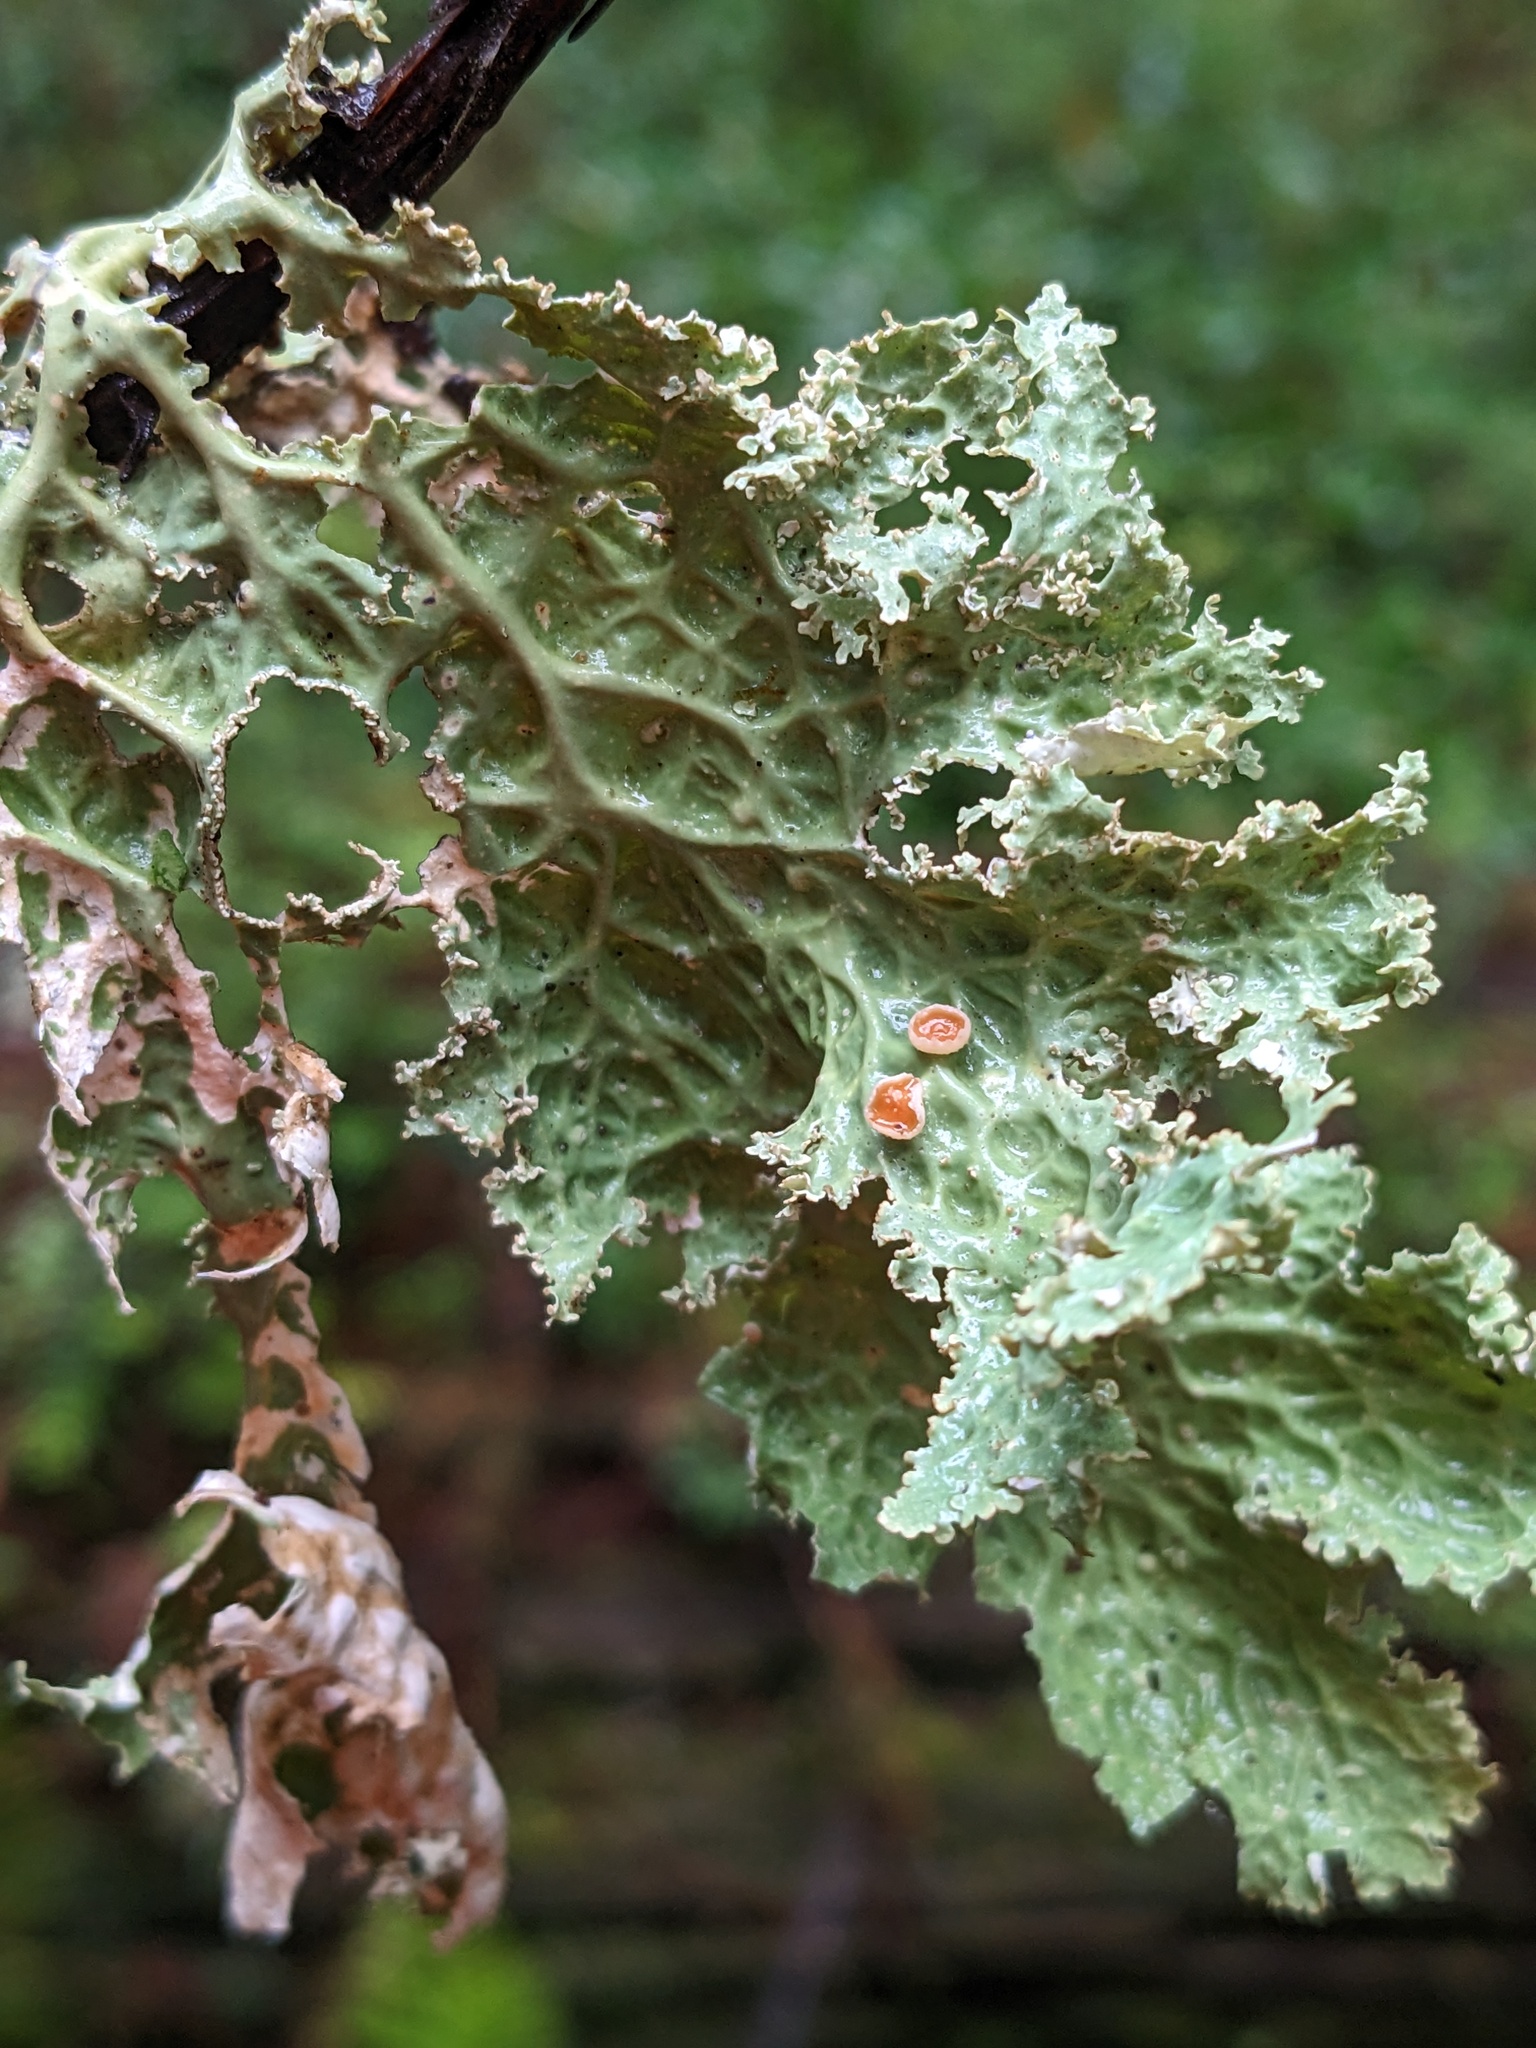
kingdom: Fungi
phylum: Ascomycota
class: Lecanoromycetes
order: Peltigerales
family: Lobariaceae
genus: Lobaria
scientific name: Lobaria oregana
